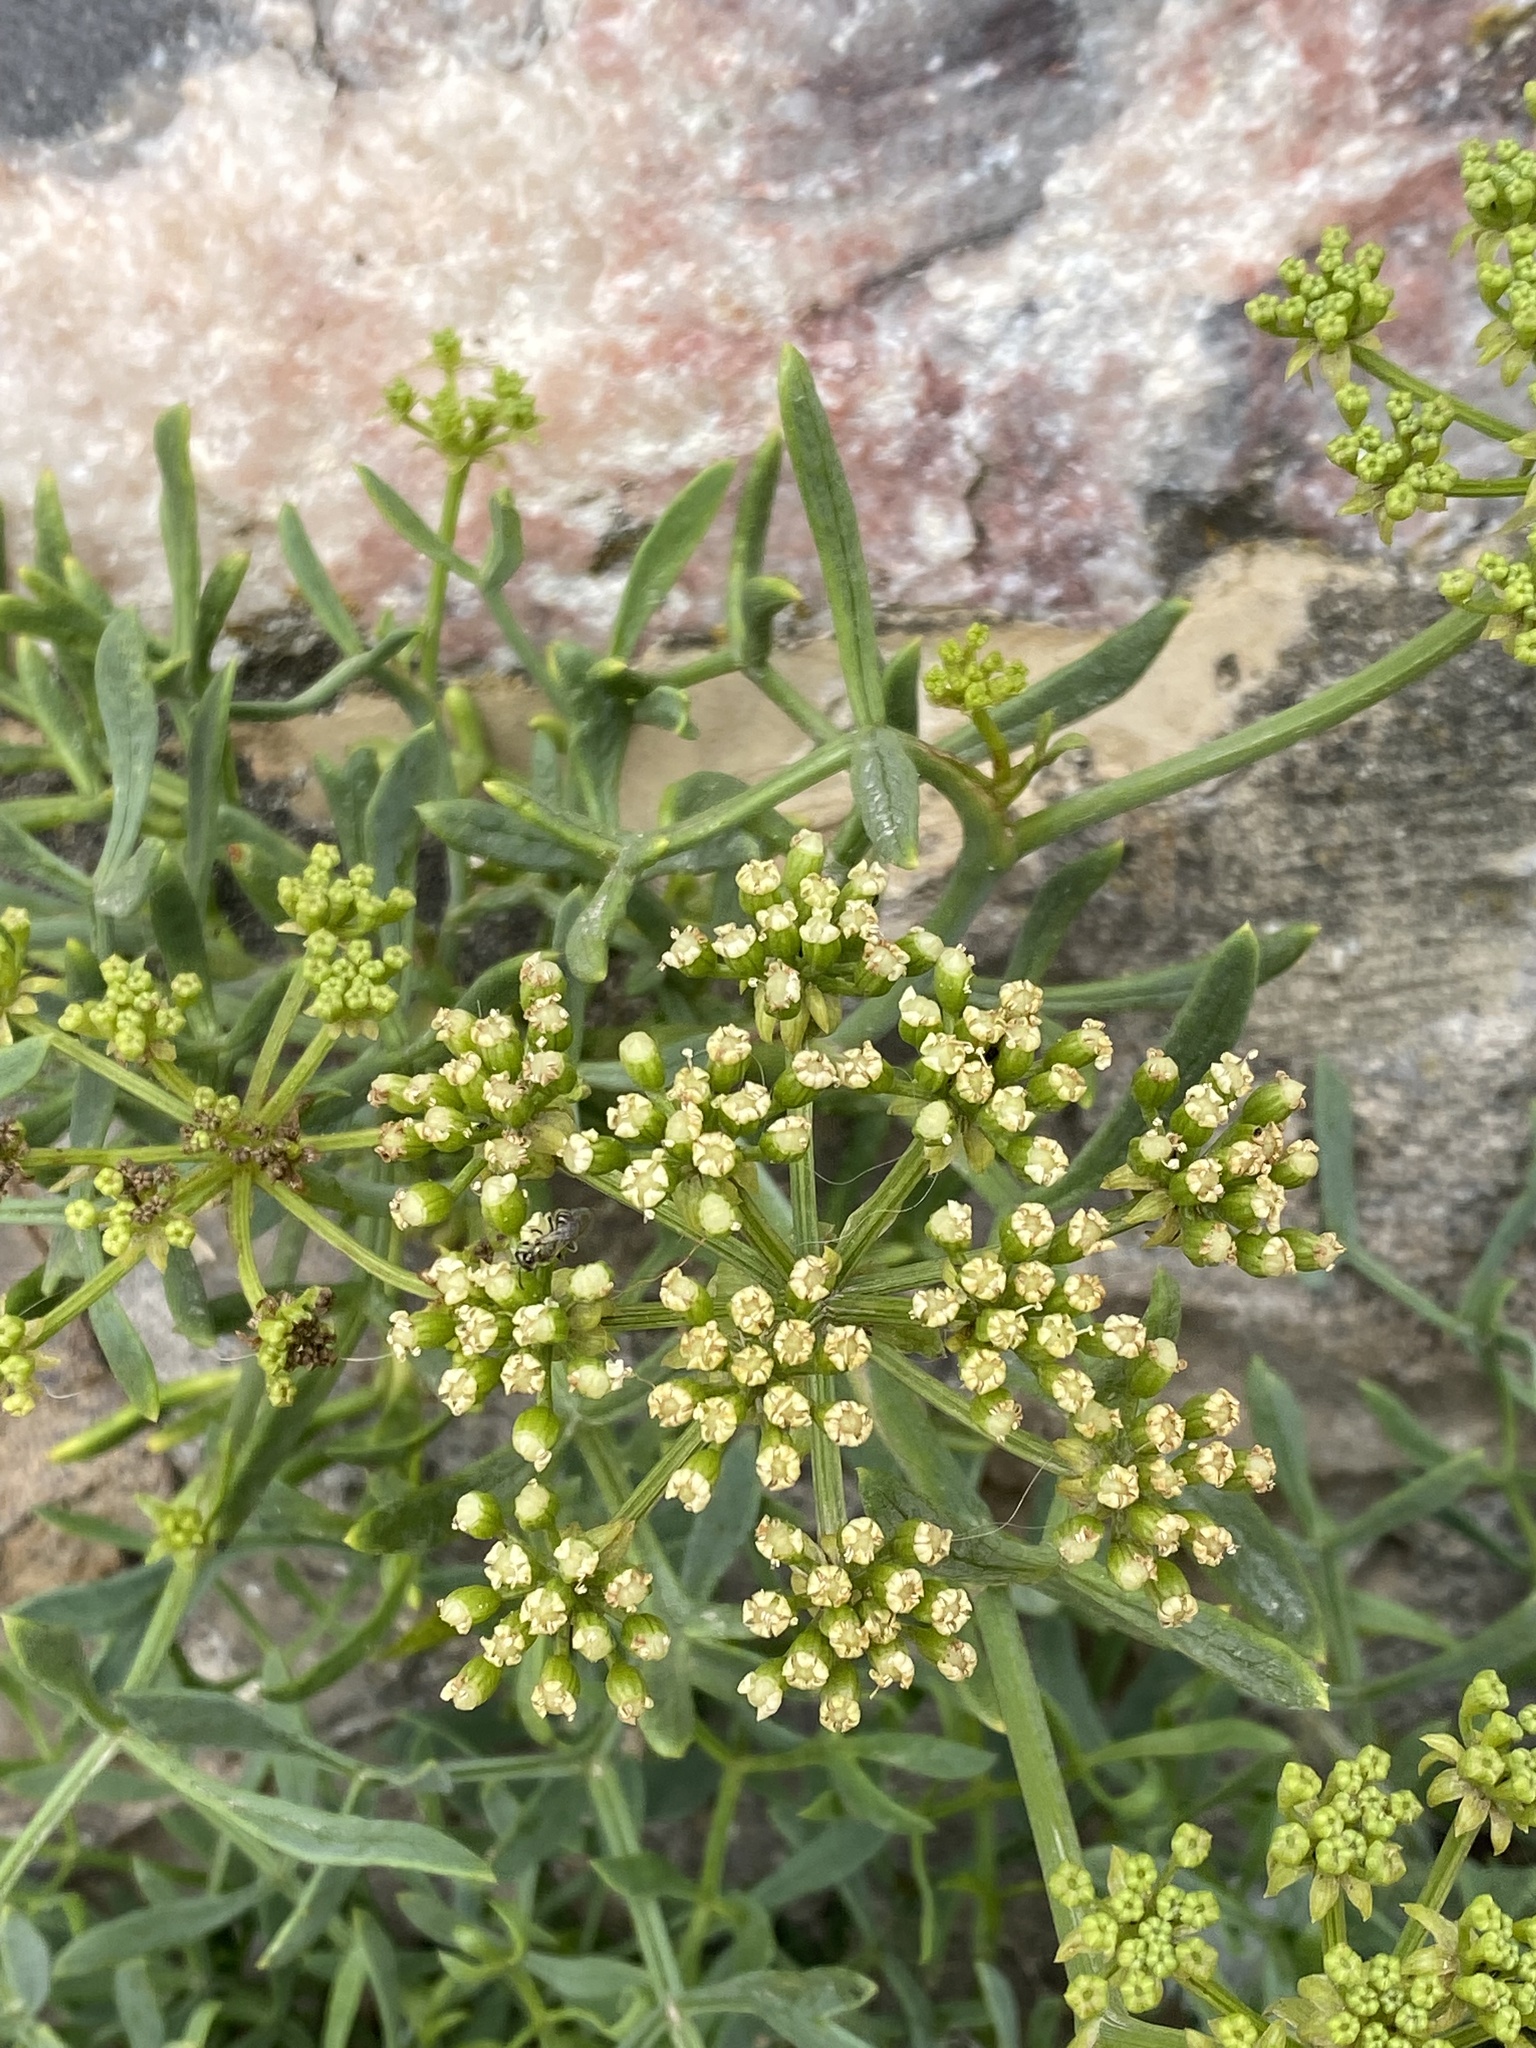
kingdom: Plantae
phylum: Tracheophyta
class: Magnoliopsida
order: Apiales
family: Apiaceae
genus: Crithmum
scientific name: Crithmum maritimum
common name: Rock samphire
